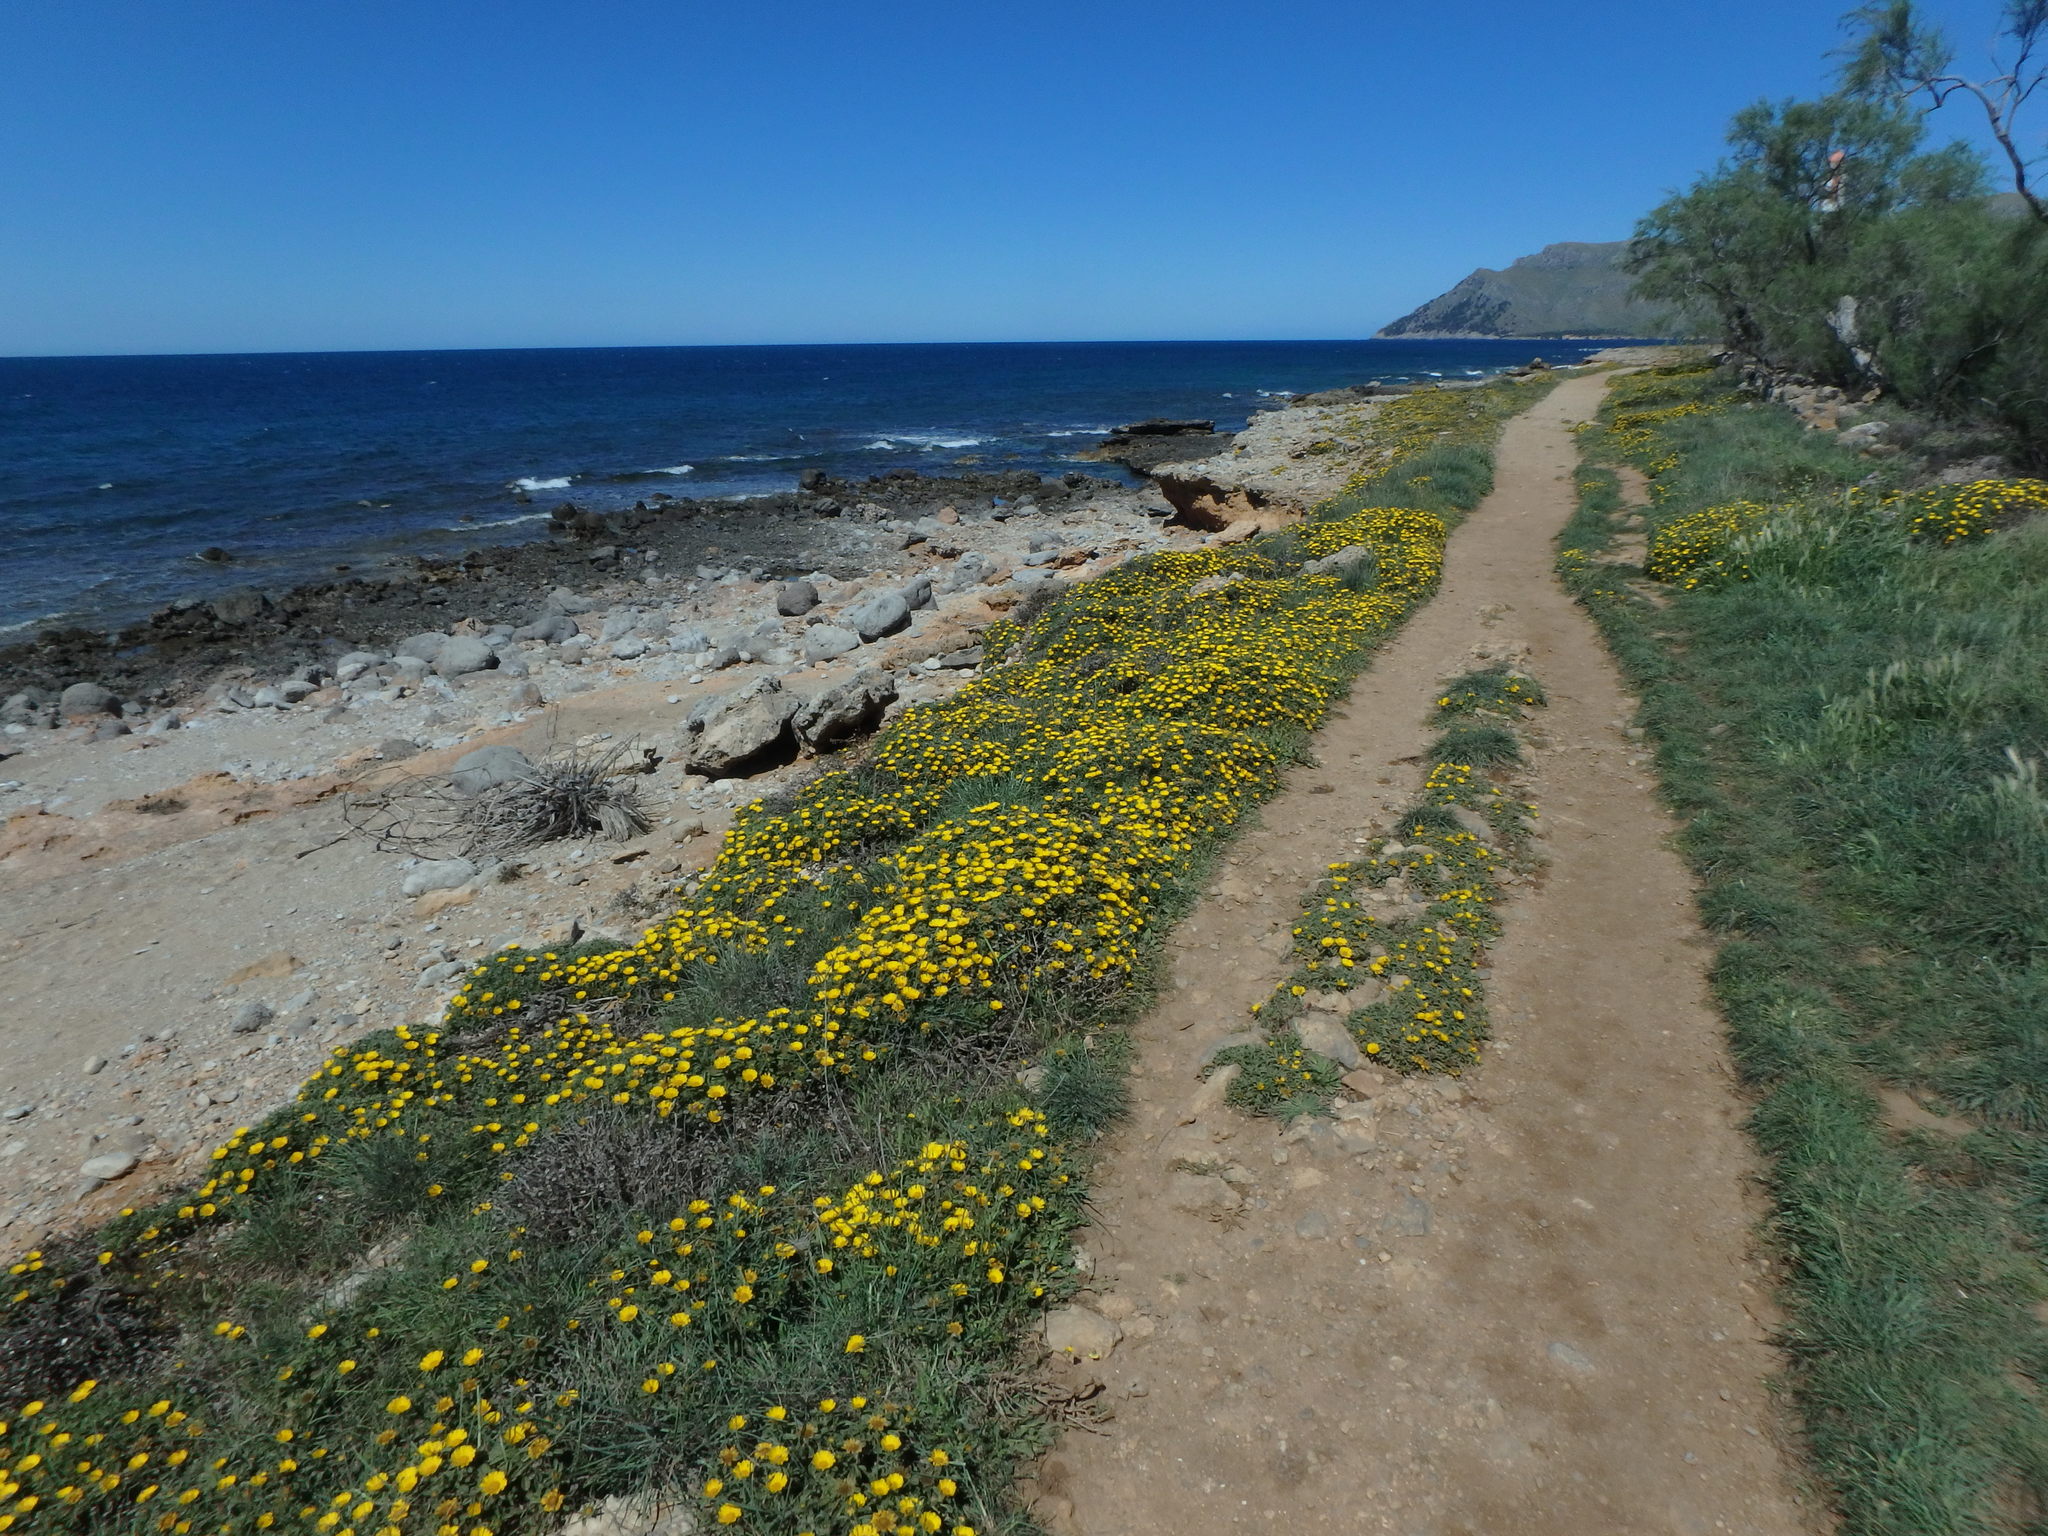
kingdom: Plantae
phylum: Tracheophyta
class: Magnoliopsida
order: Asterales
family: Asteraceae
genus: Pallenis
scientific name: Pallenis maritima
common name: Golden coin daisy
